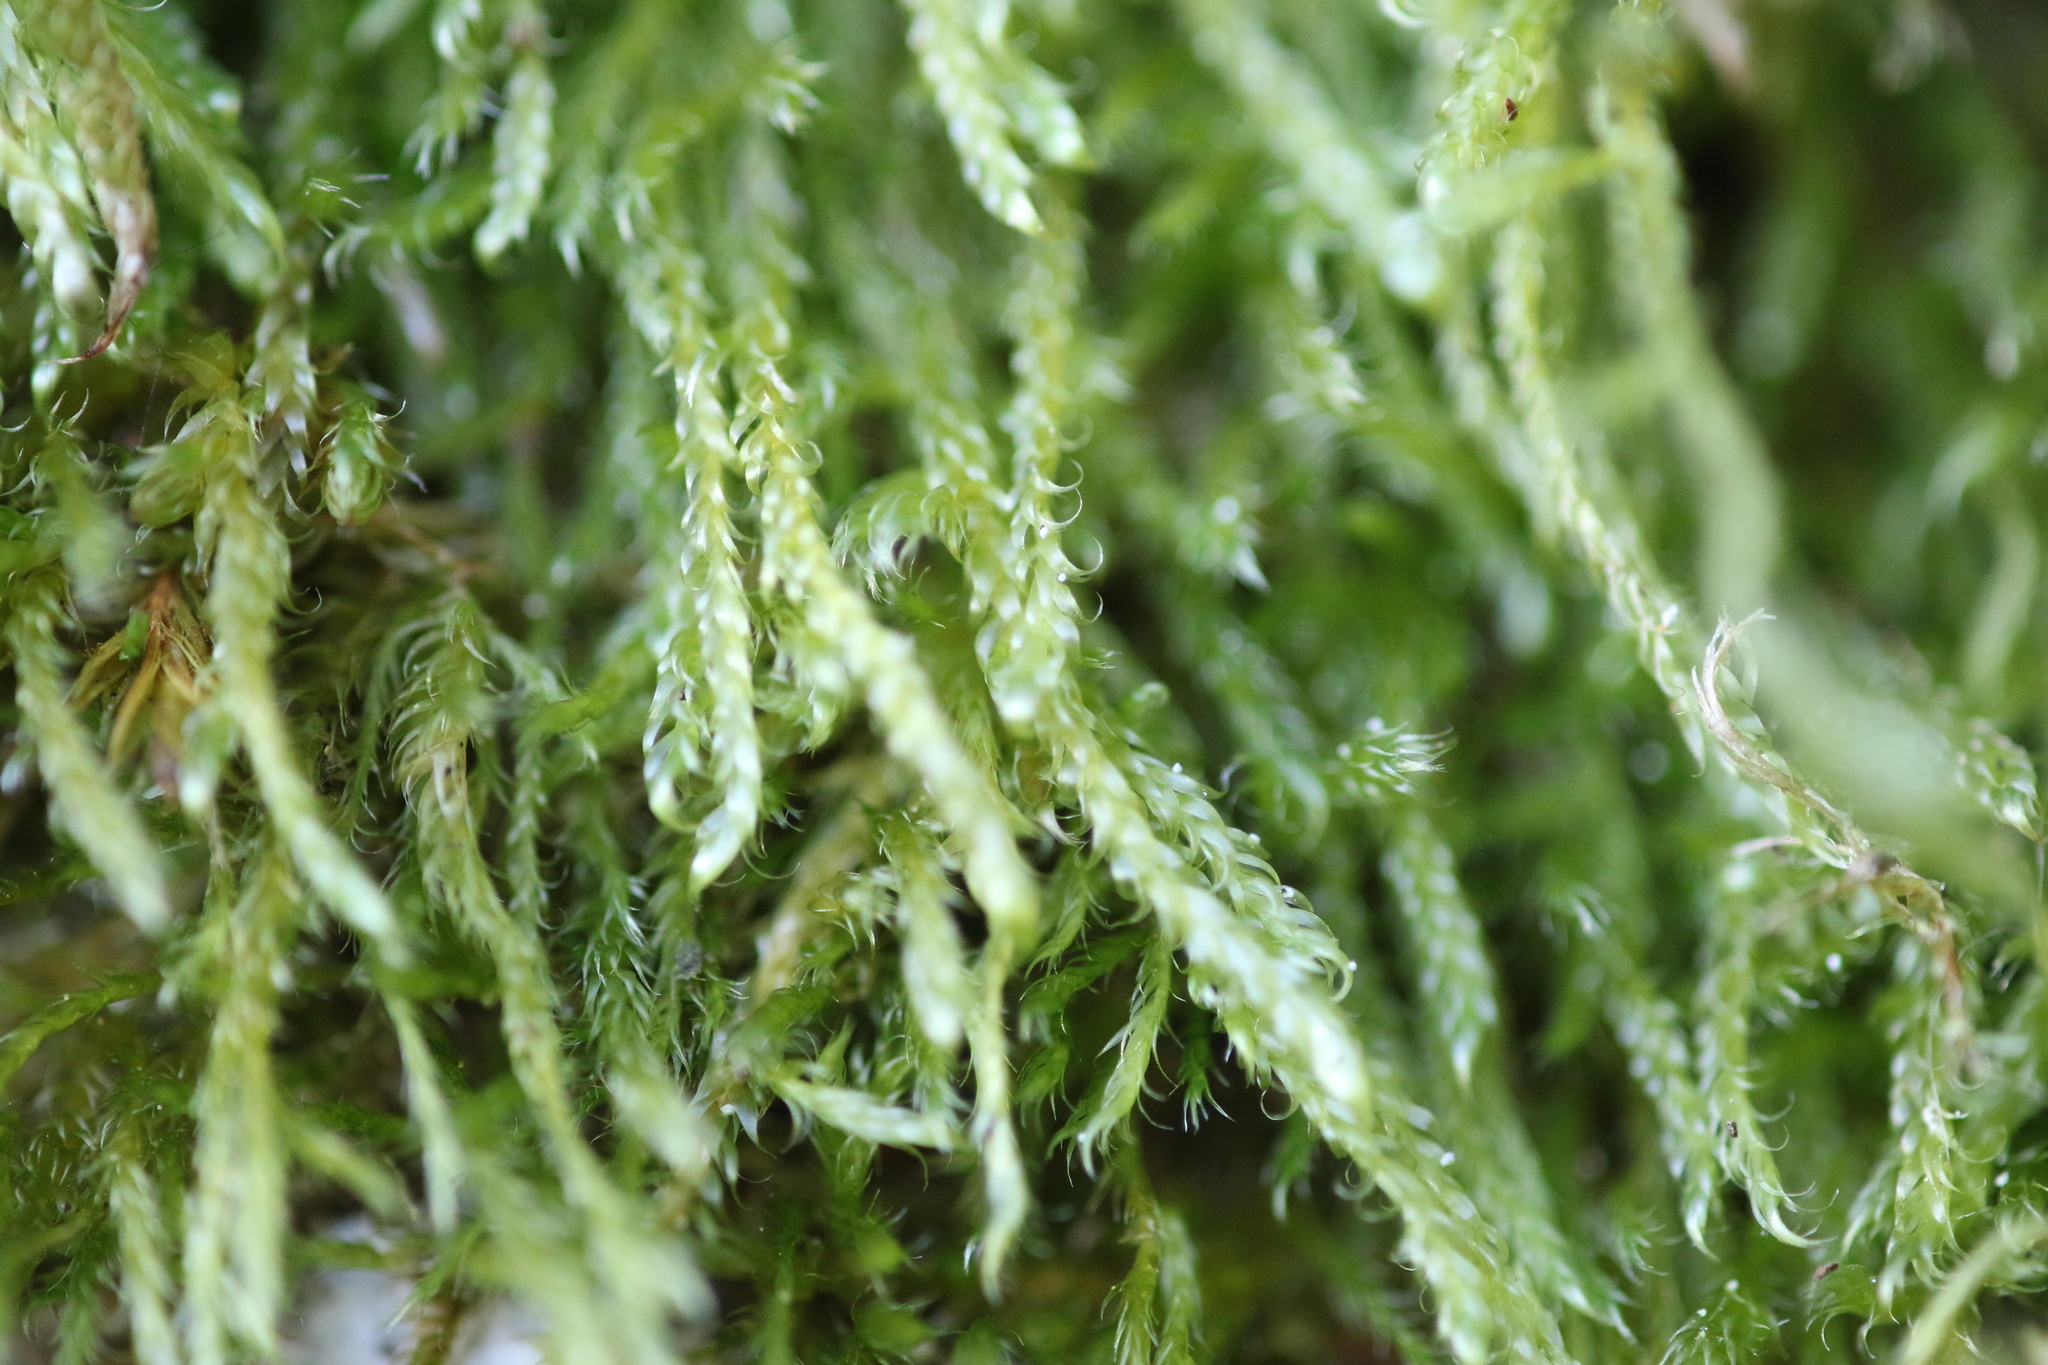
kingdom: Plantae
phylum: Bryophyta
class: Bryopsida
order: Hypnales
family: Hypnaceae
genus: Hypnum
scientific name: Hypnum andoi
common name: Ando's plait moss
